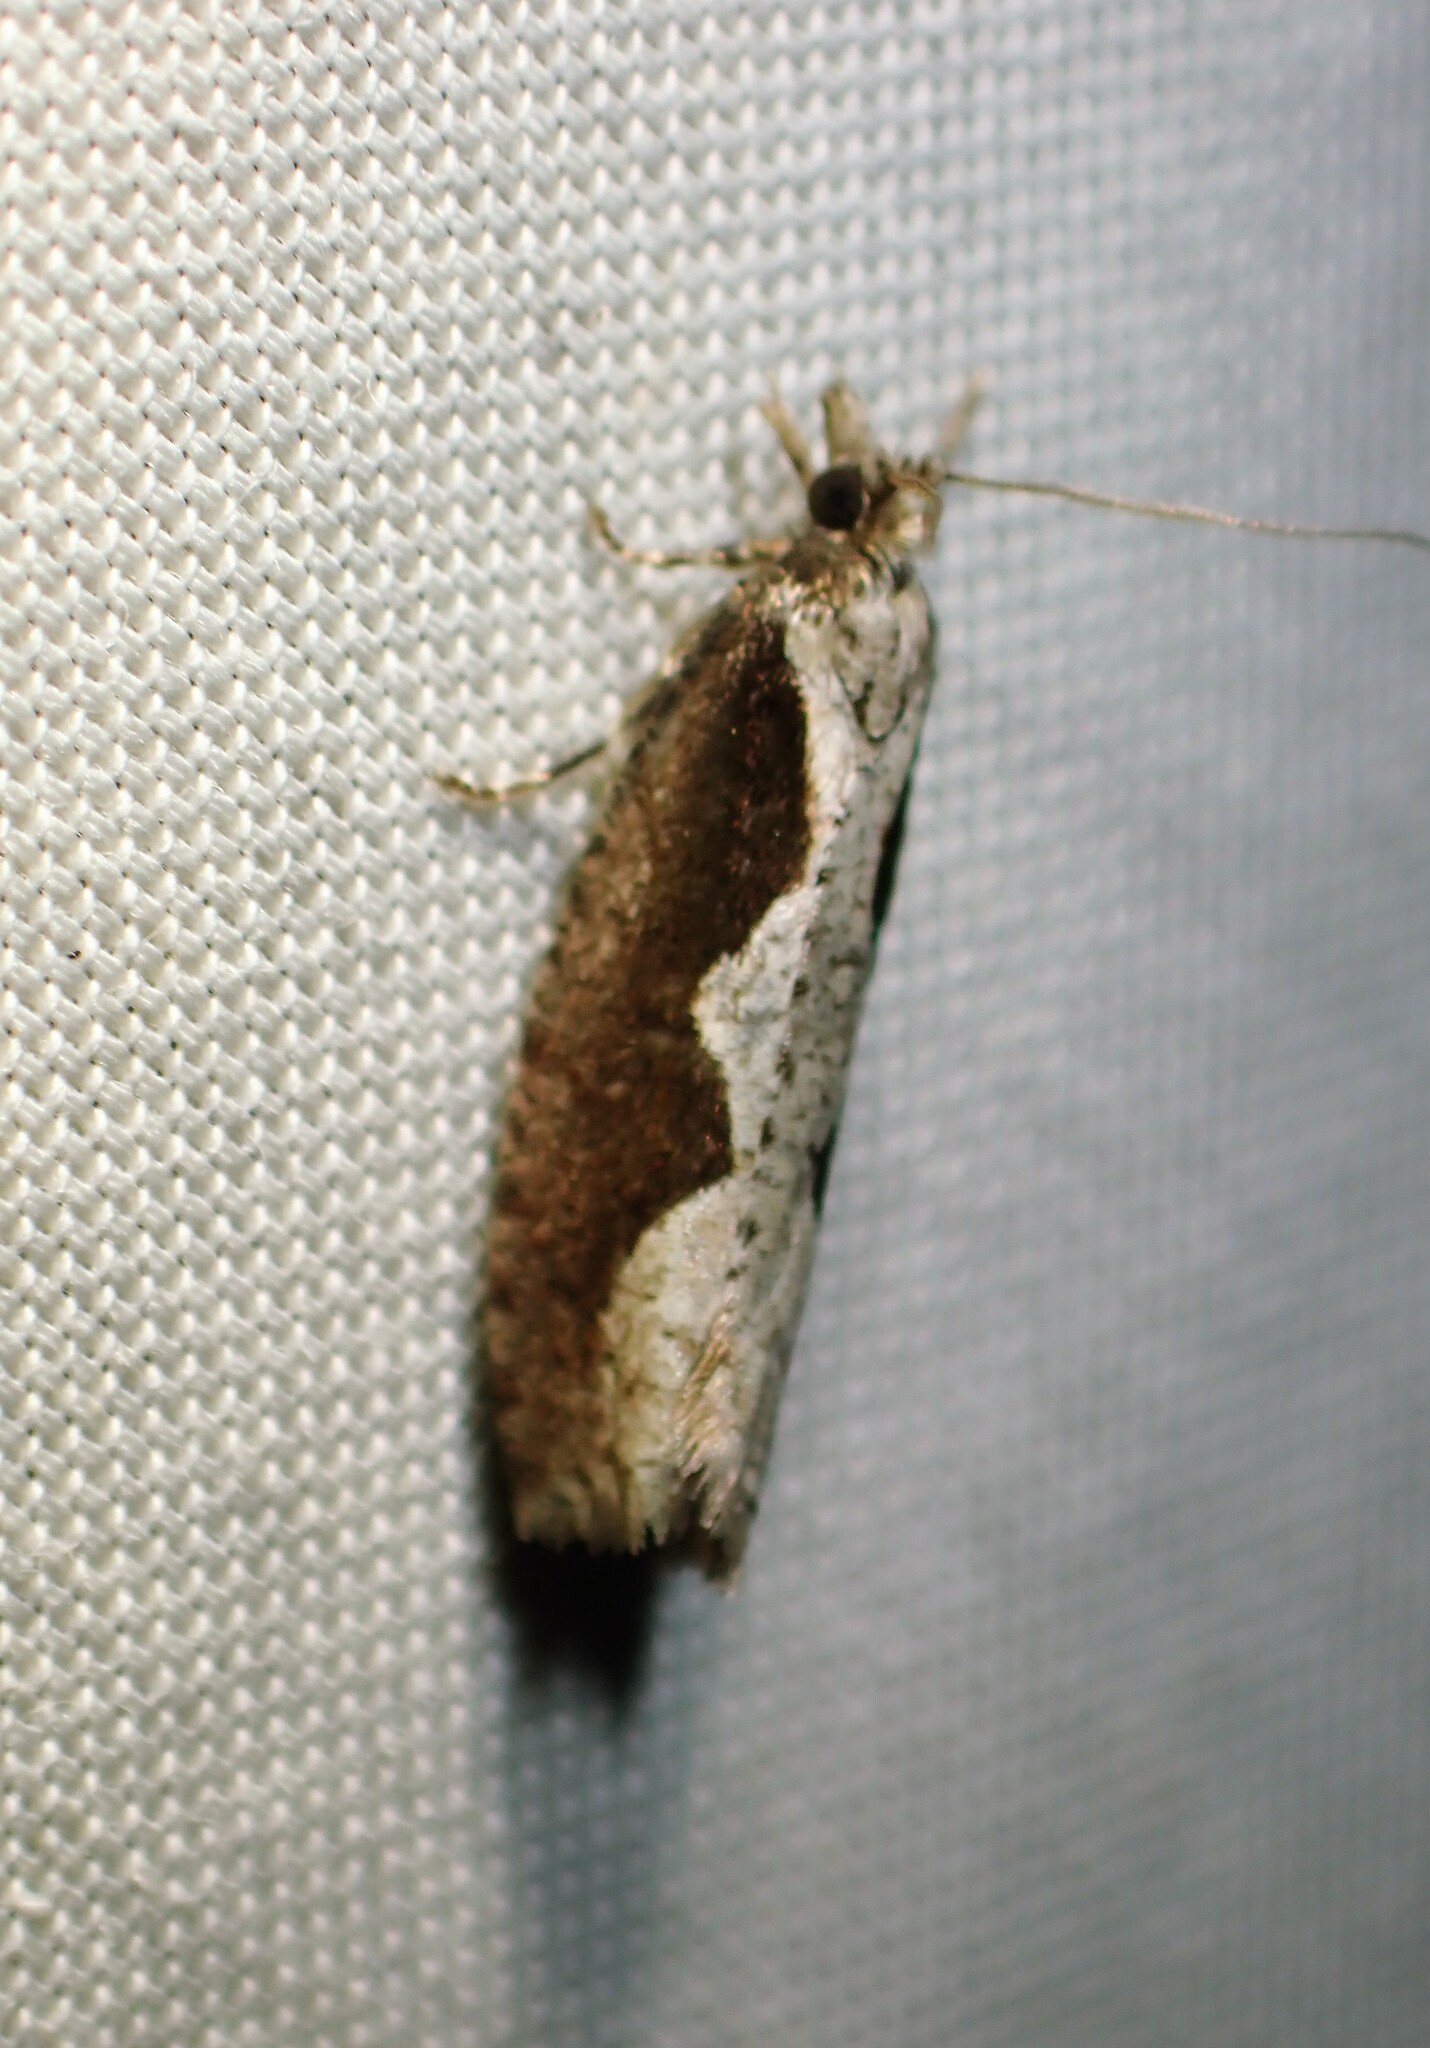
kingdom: Animalia
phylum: Arthropoda
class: Insecta
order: Lepidoptera
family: Tortricidae
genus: Epinotia
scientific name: Epinotia lindana
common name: Diamondback epinotia moth
